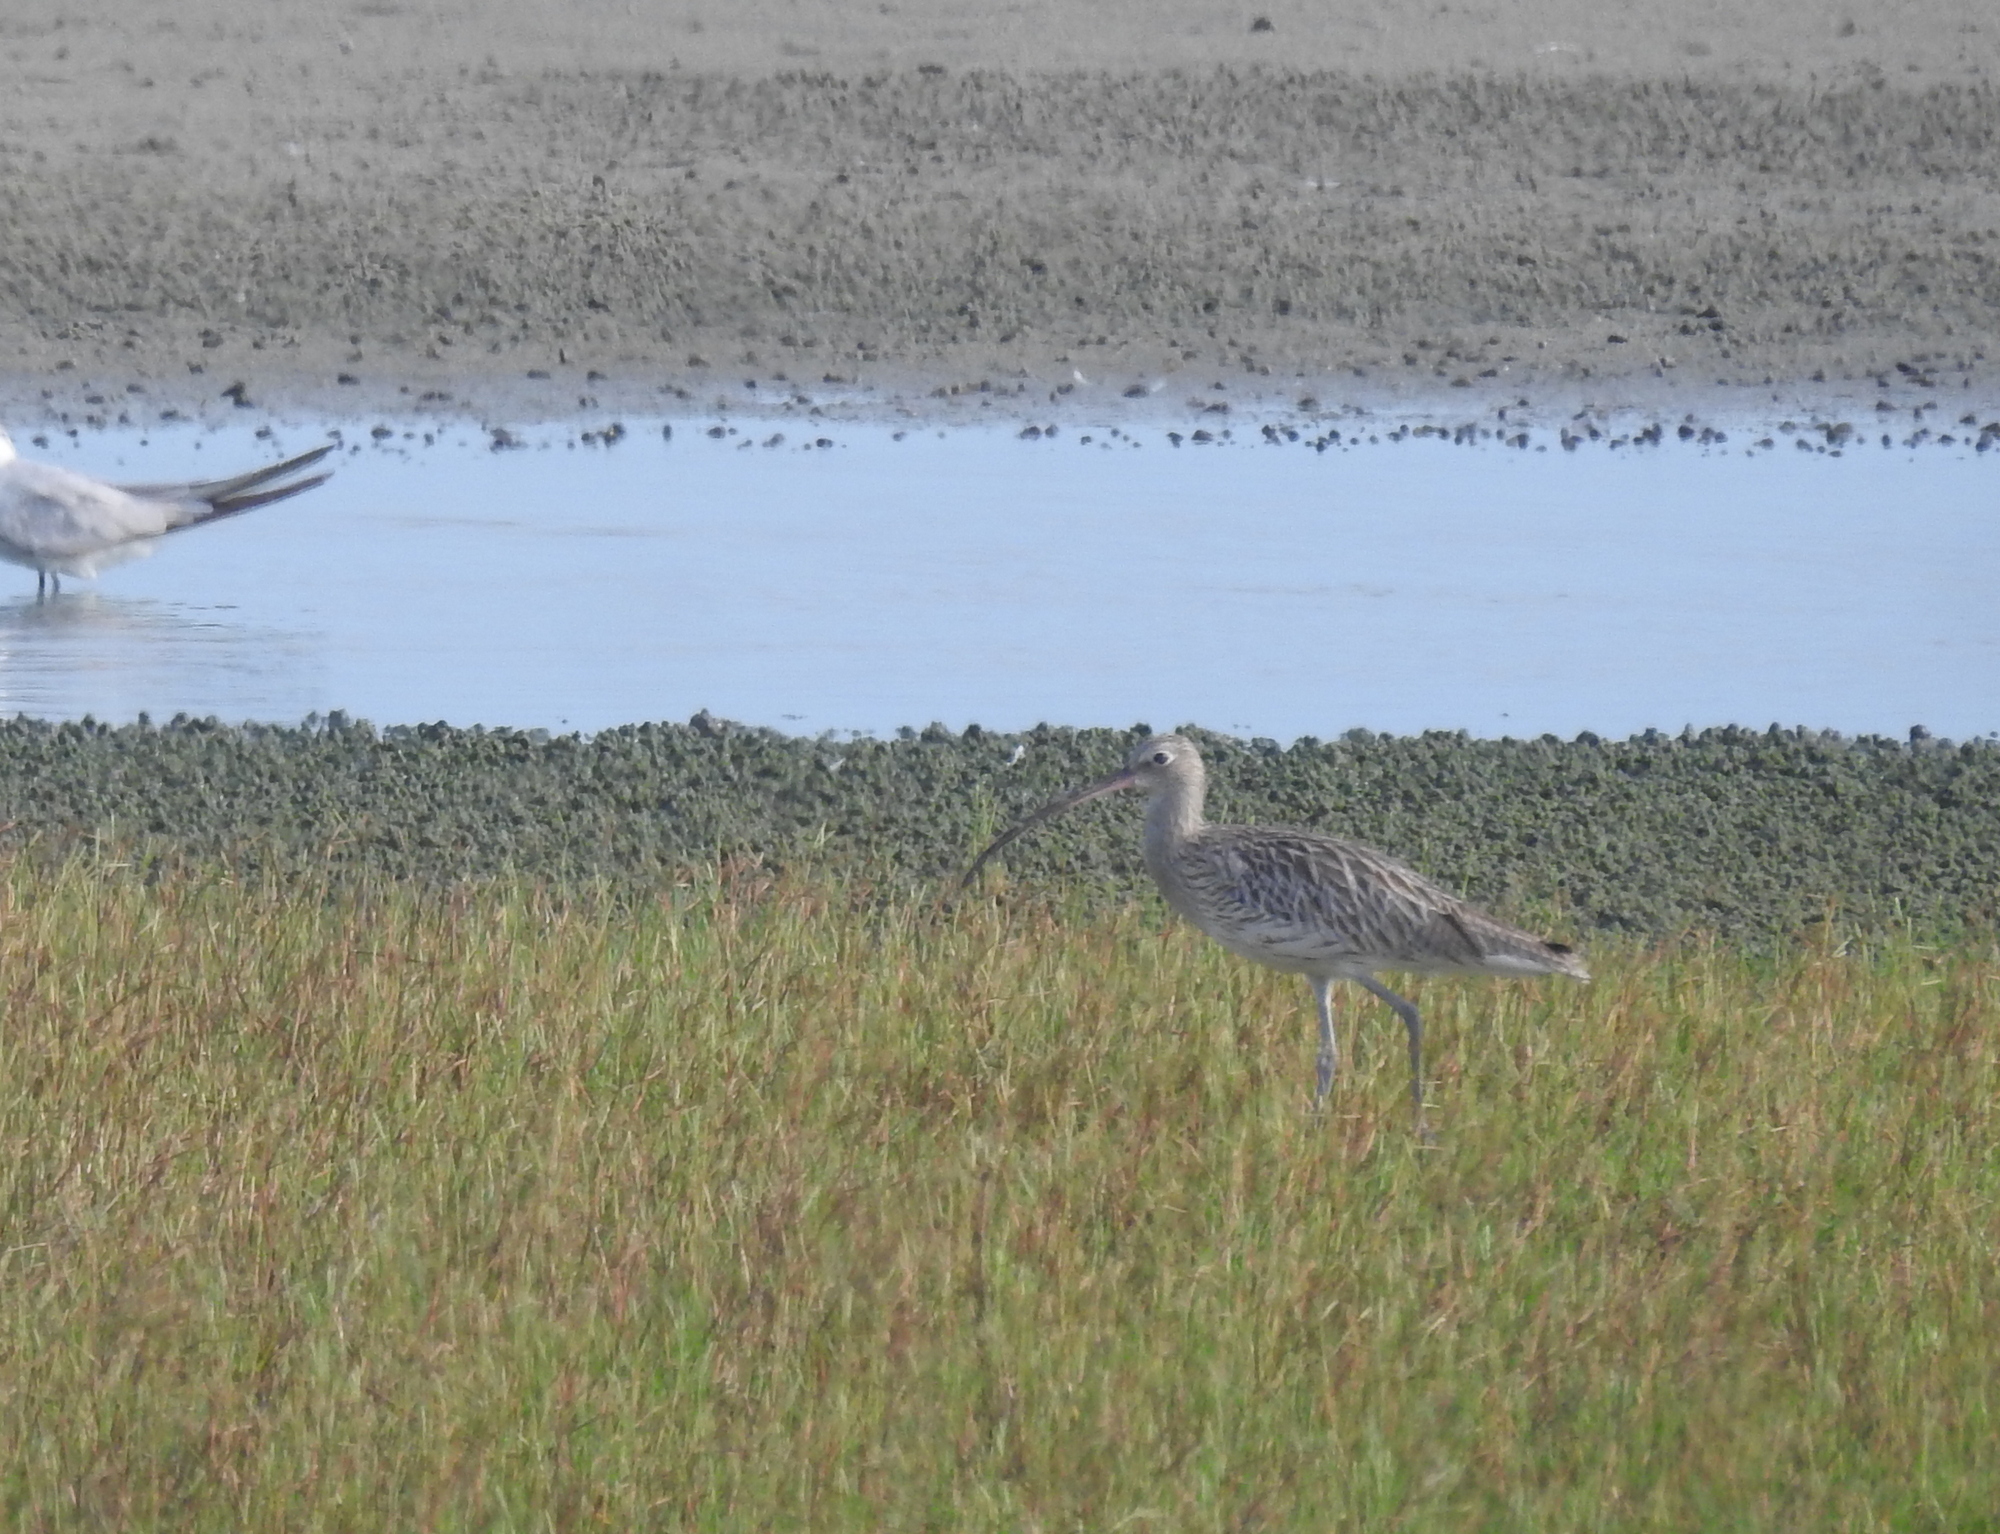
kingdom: Animalia
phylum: Chordata
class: Aves
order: Charadriiformes
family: Scolopacidae
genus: Numenius
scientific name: Numenius arquata
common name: Eurasian curlew
